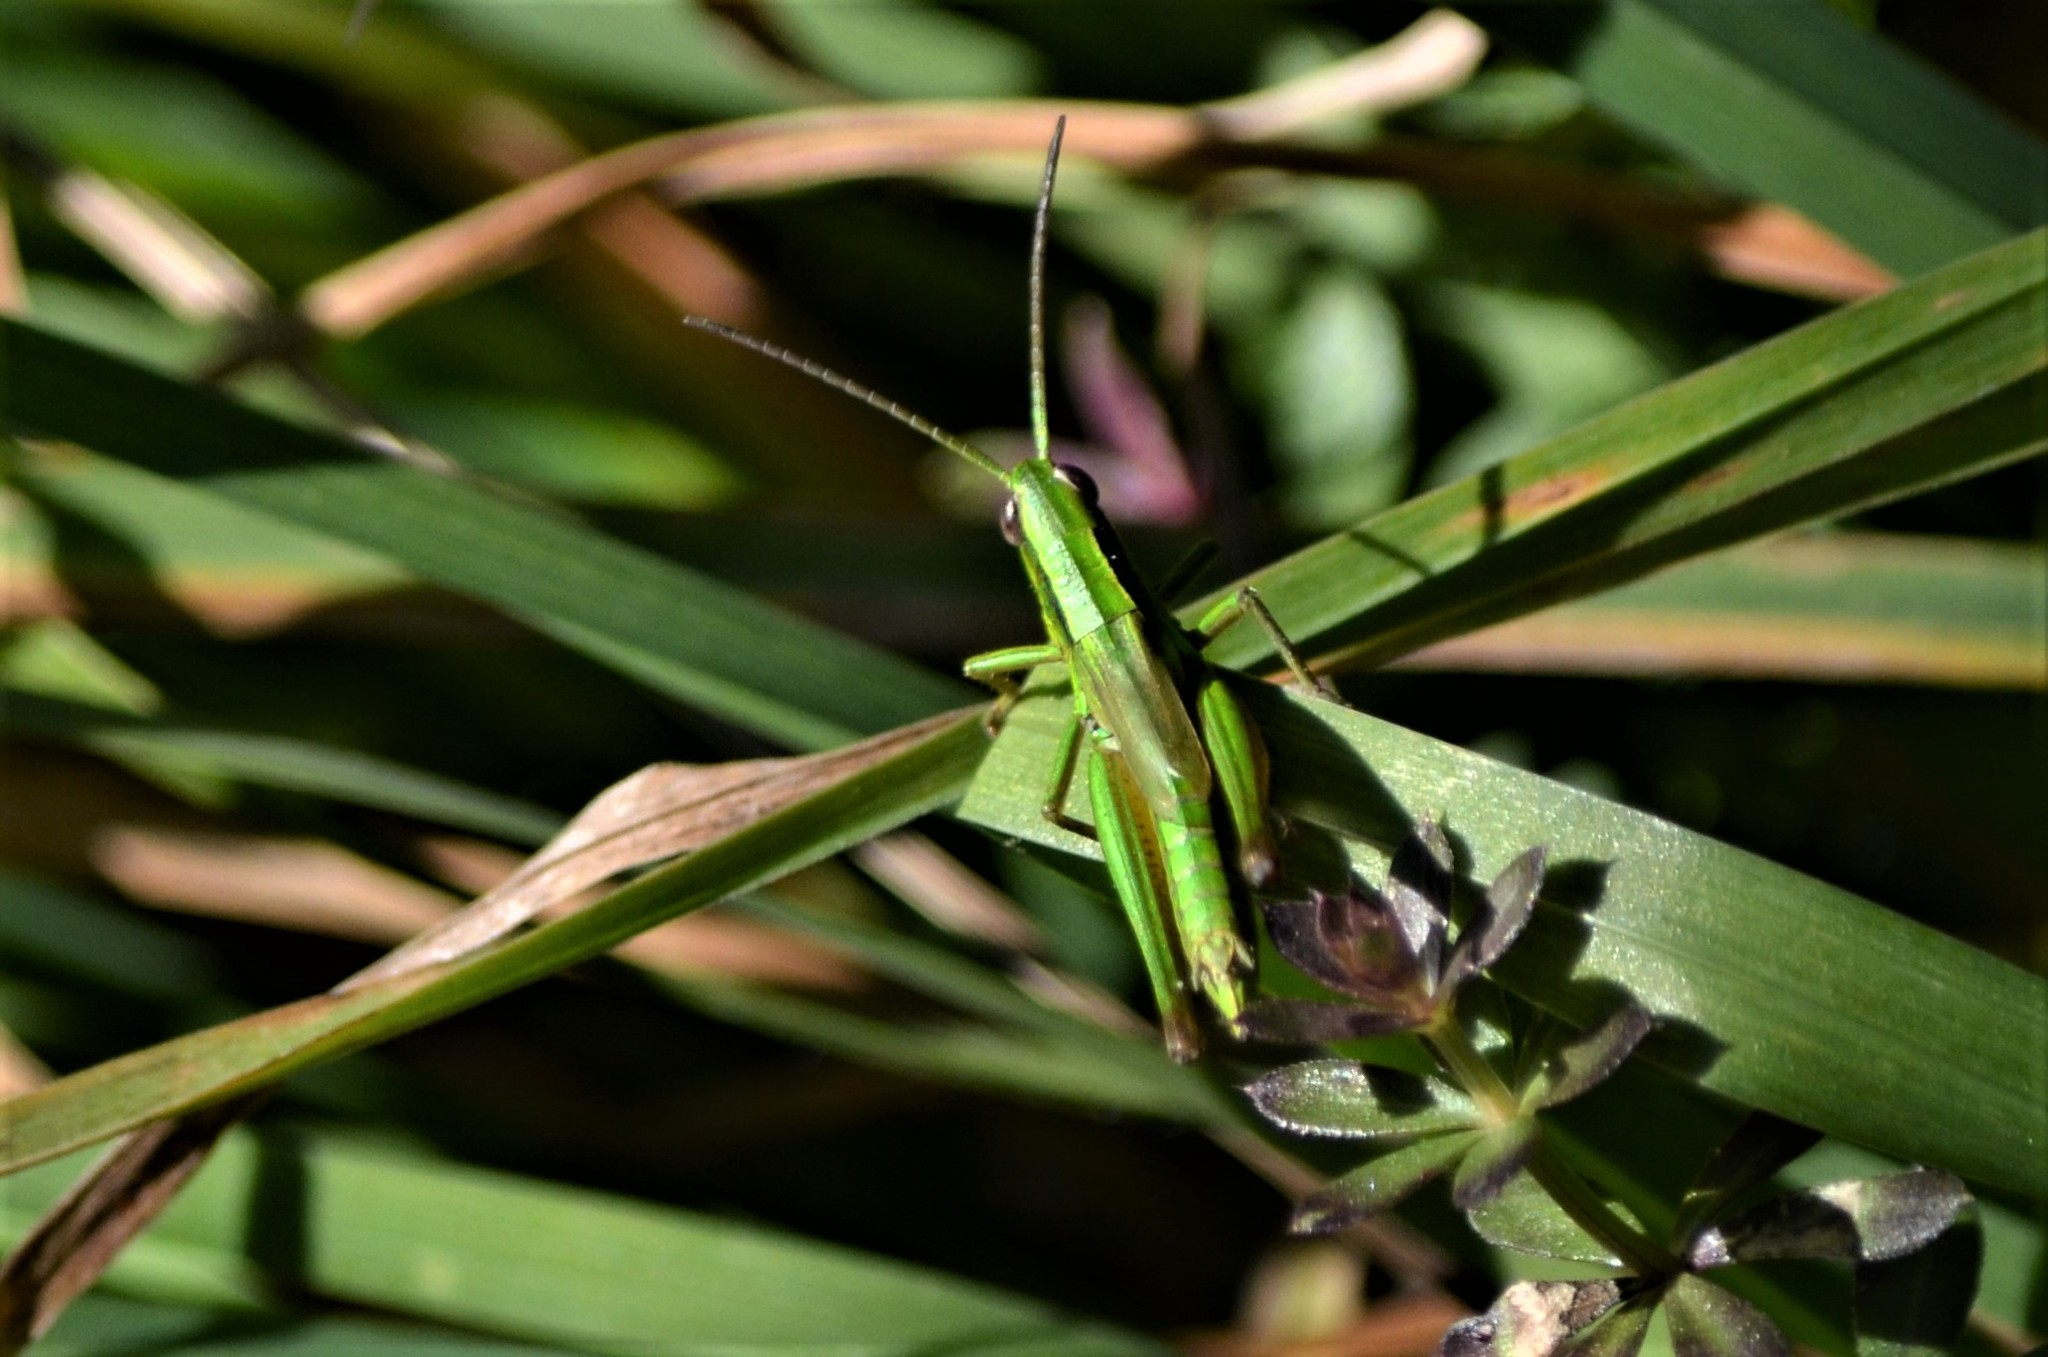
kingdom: Animalia
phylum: Arthropoda
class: Insecta
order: Orthoptera
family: Acrididae
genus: Euthystira
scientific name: Euthystira brachyptera
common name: Small gold grasshopper
